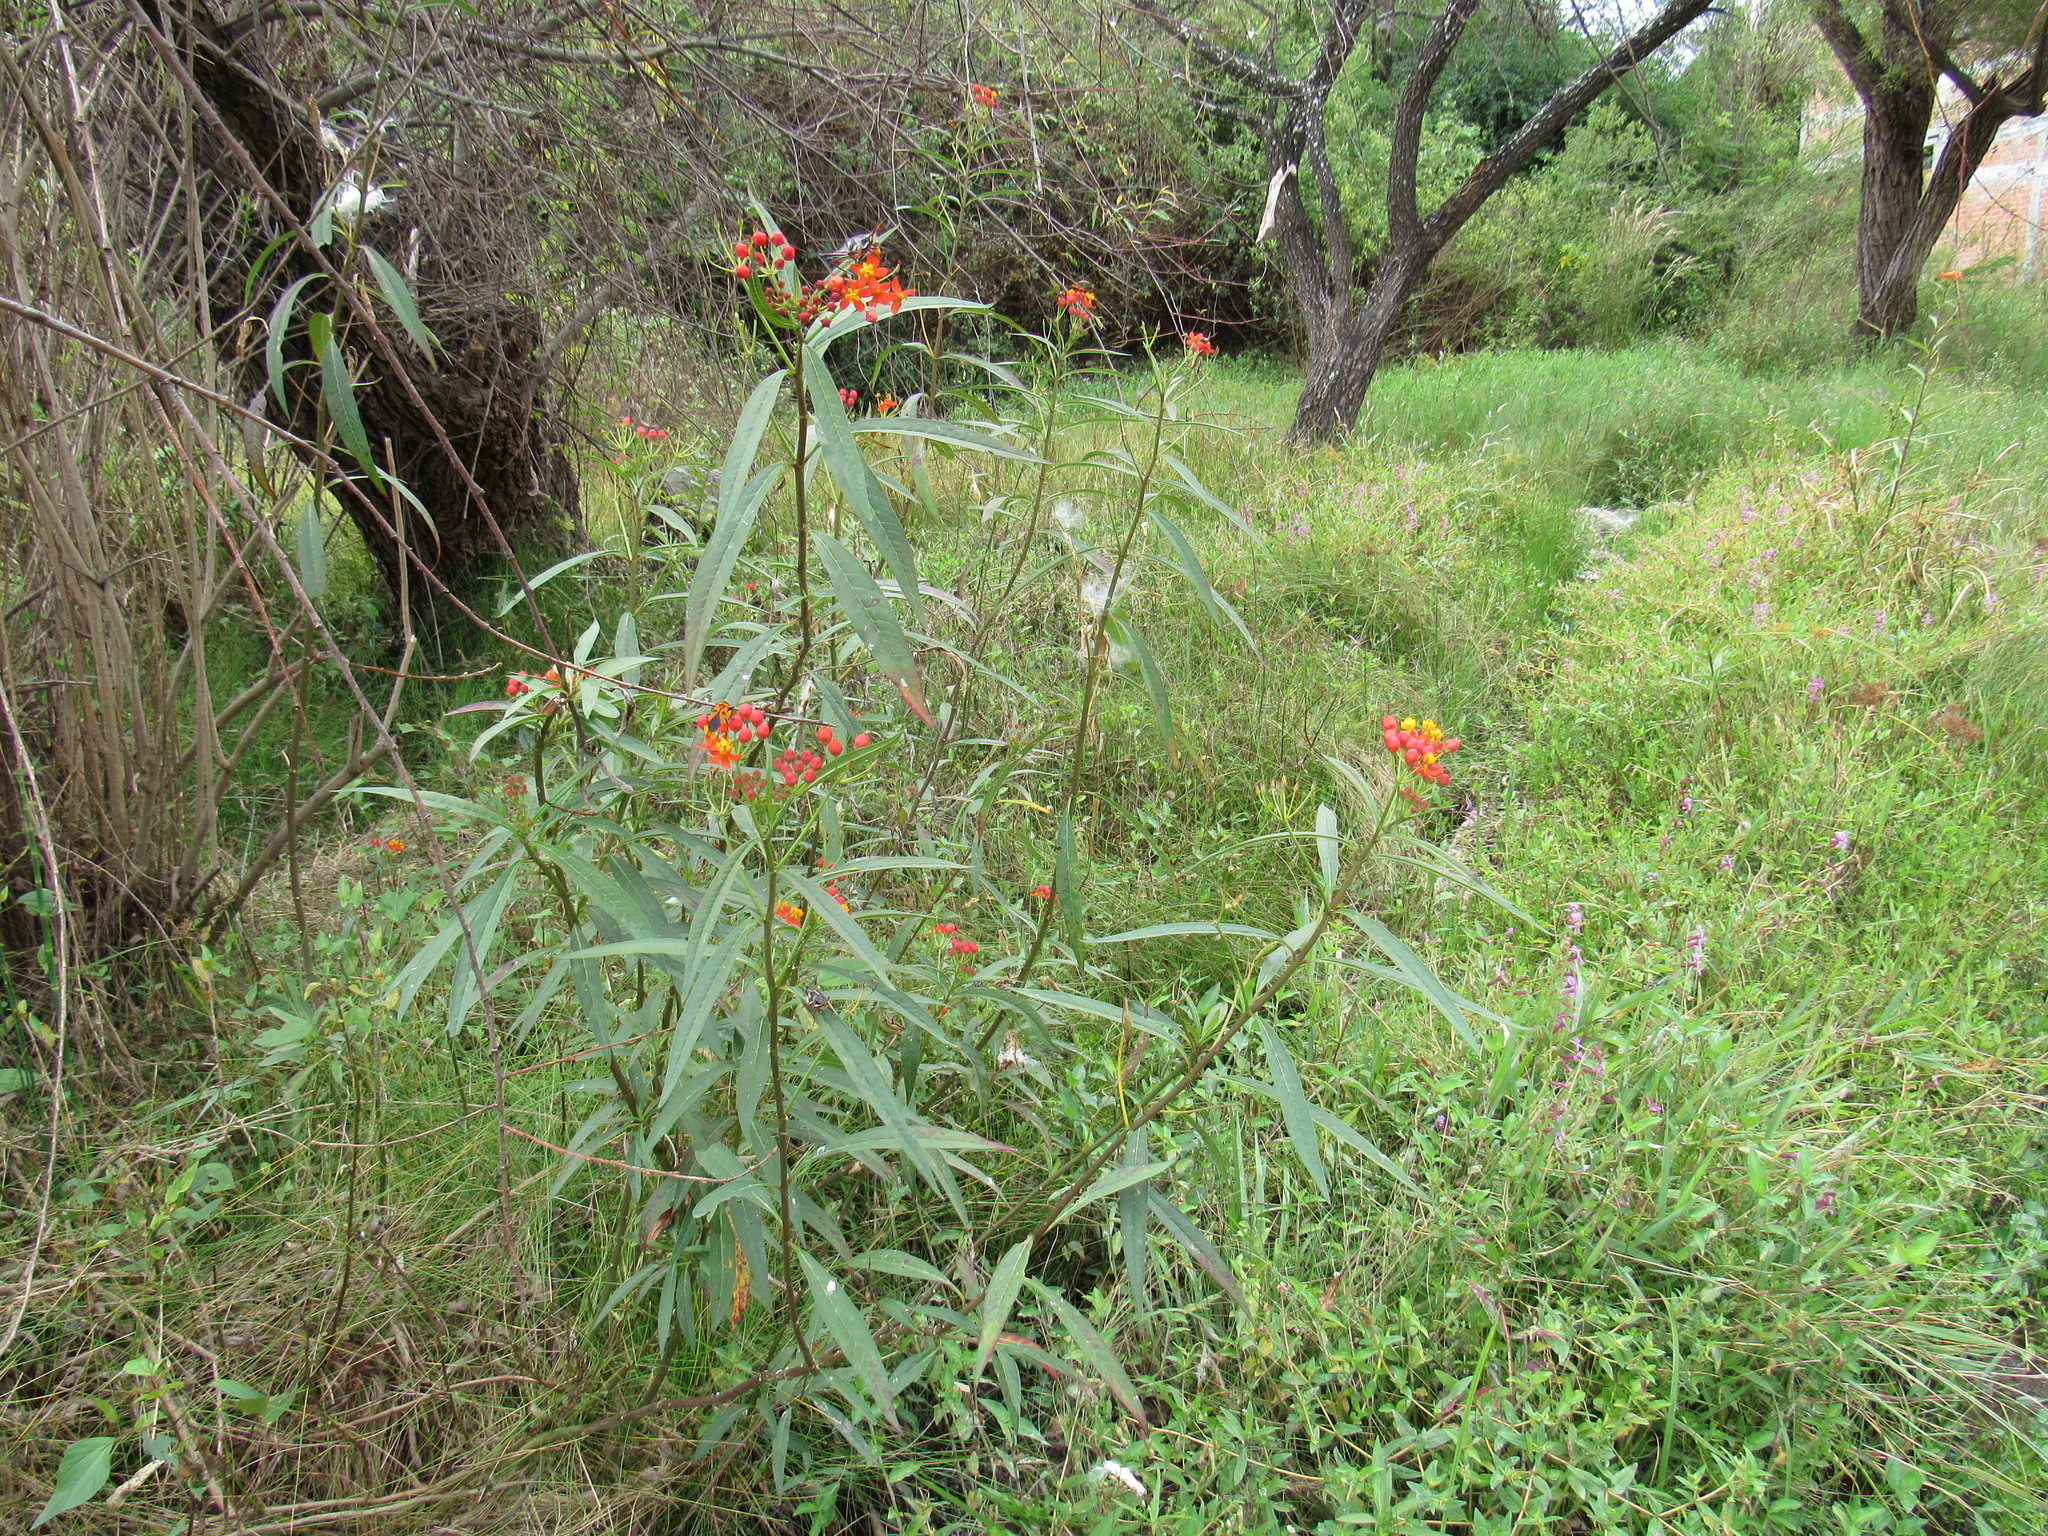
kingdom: Plantae
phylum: Tracheophyta
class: Magnoliopsida
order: Gentianales
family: Apocynaceae
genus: Asclepias
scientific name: Asclepias curassavica
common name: Bloodflower
